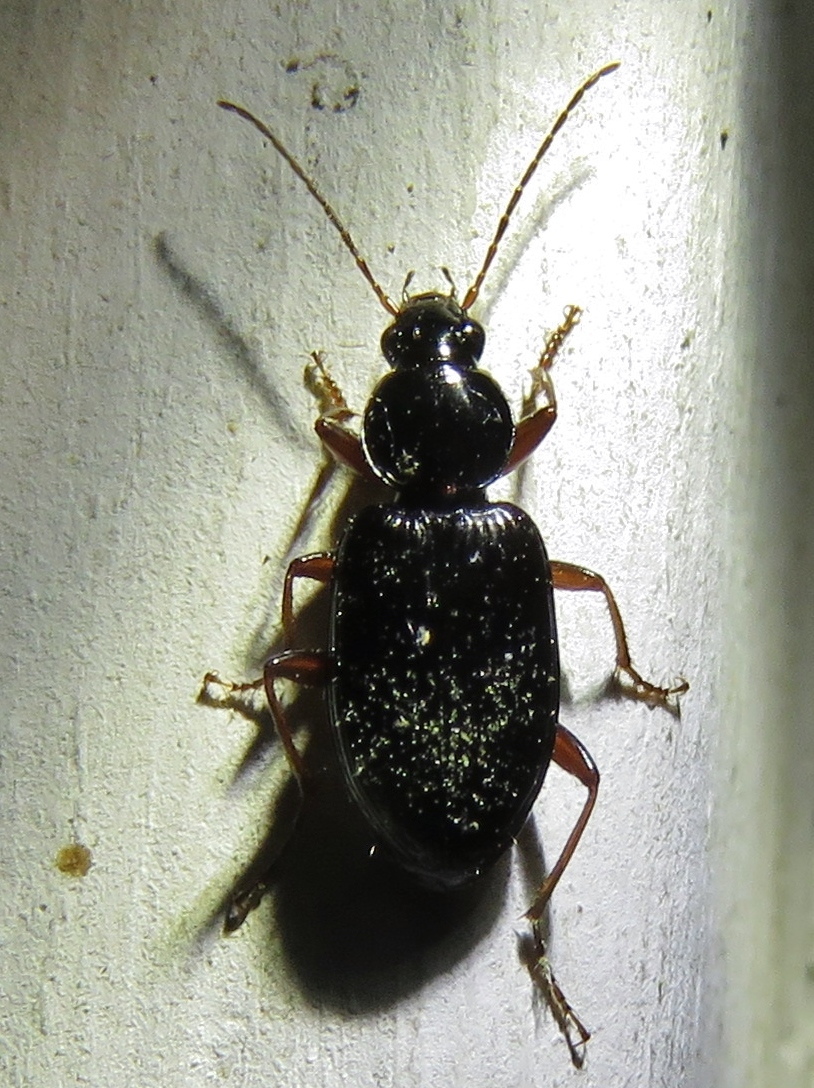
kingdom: Animalia
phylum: Arthropoda
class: Insecta
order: Coleoptera
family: Carabidae
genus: Agonum
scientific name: Agonum punctiforme
